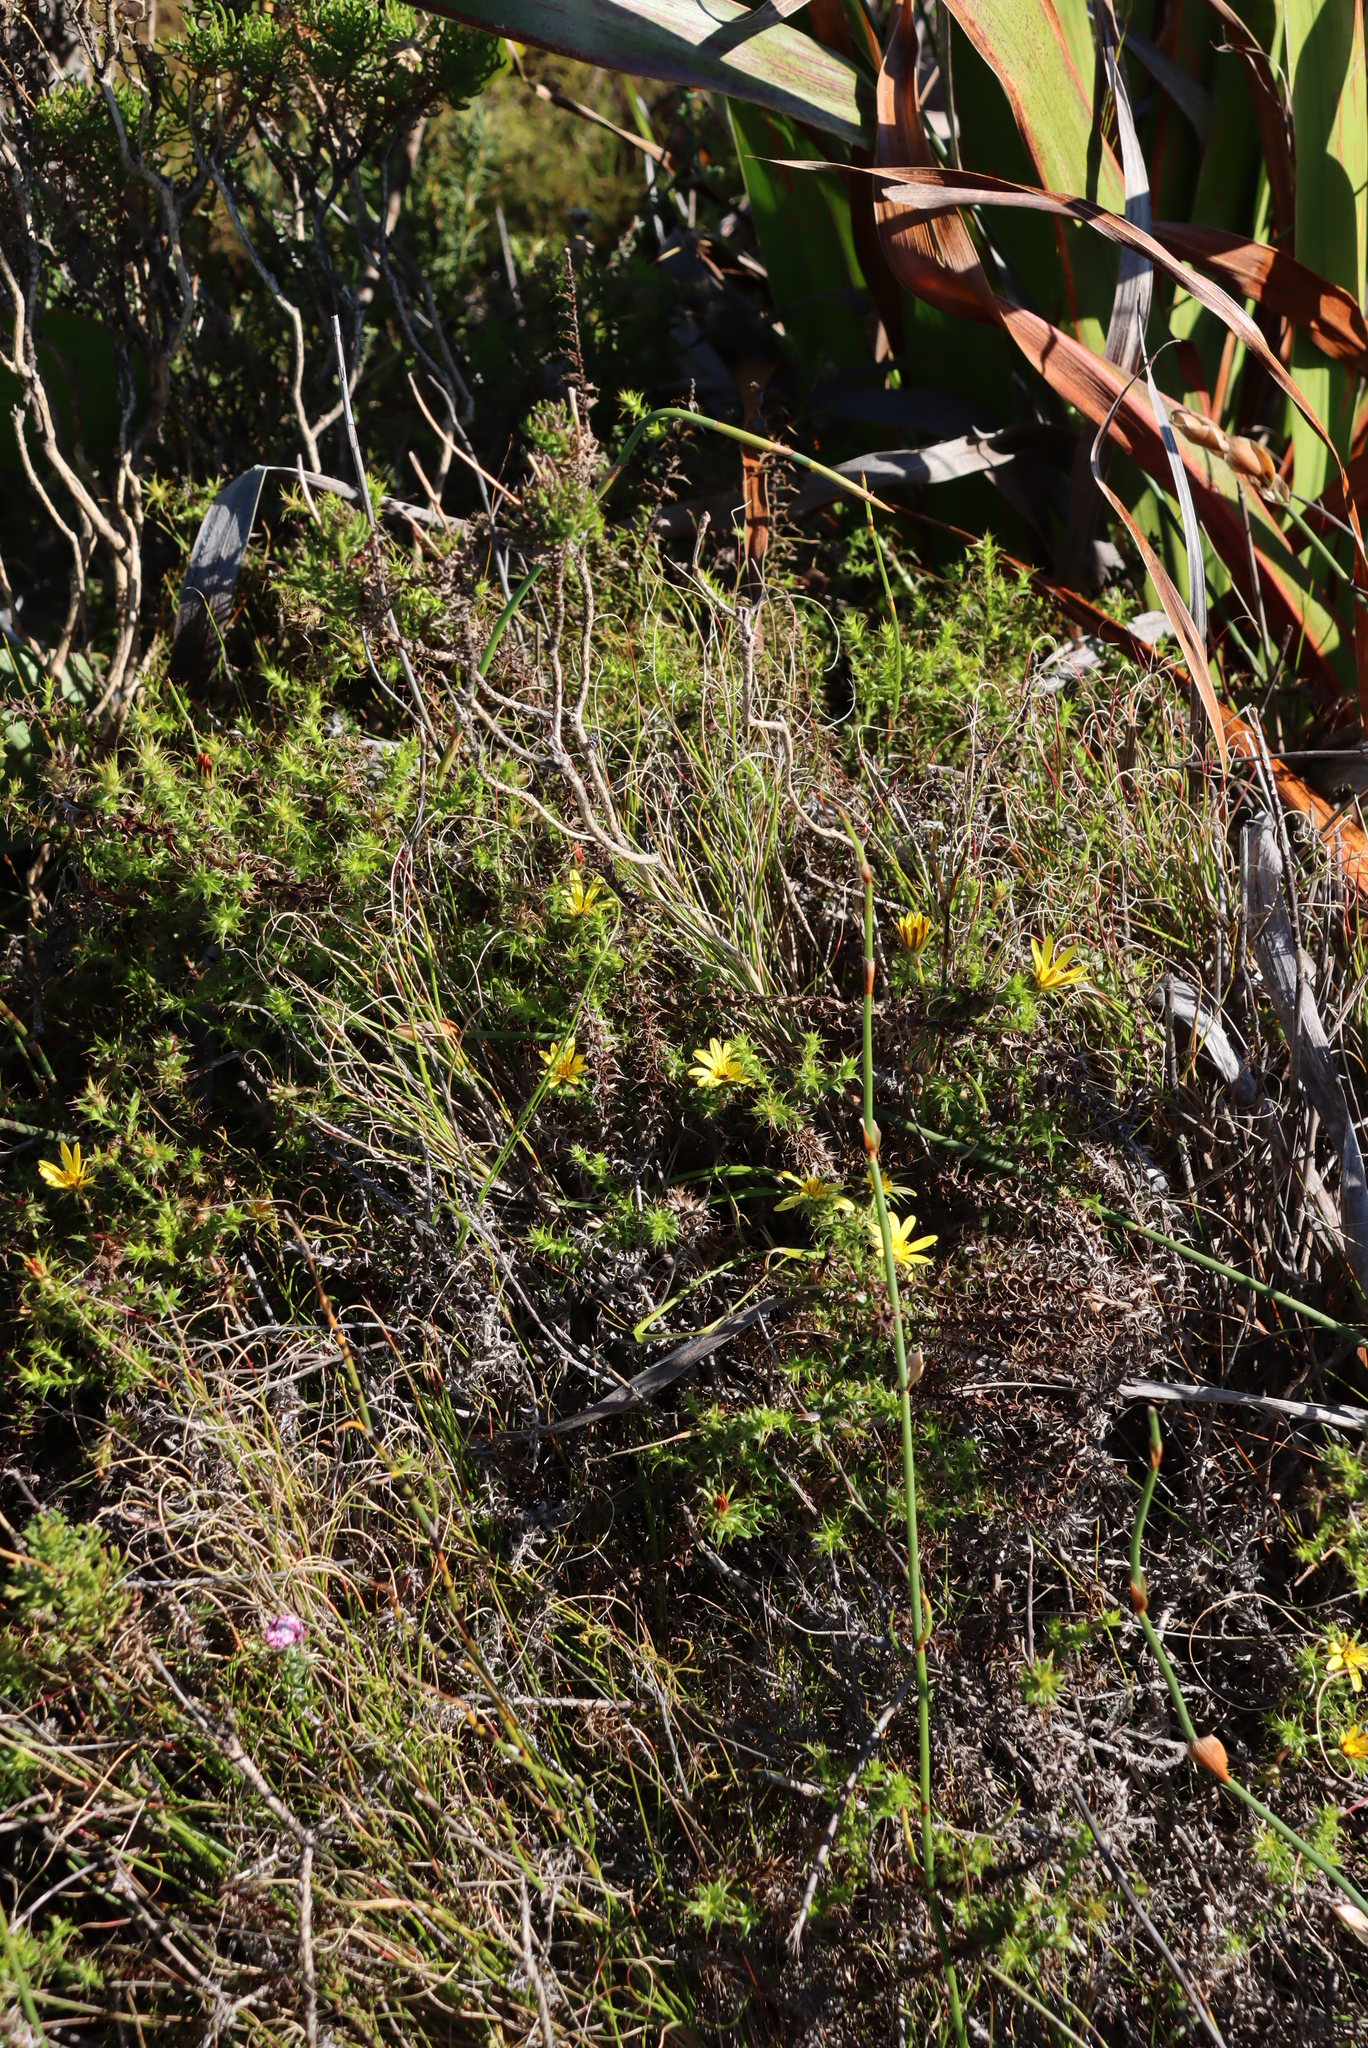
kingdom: Plantae
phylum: Tracheophyta
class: Magnoliopsida
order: Asterales
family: Asteraceae
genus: Cullumia
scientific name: Cullumia setosa
